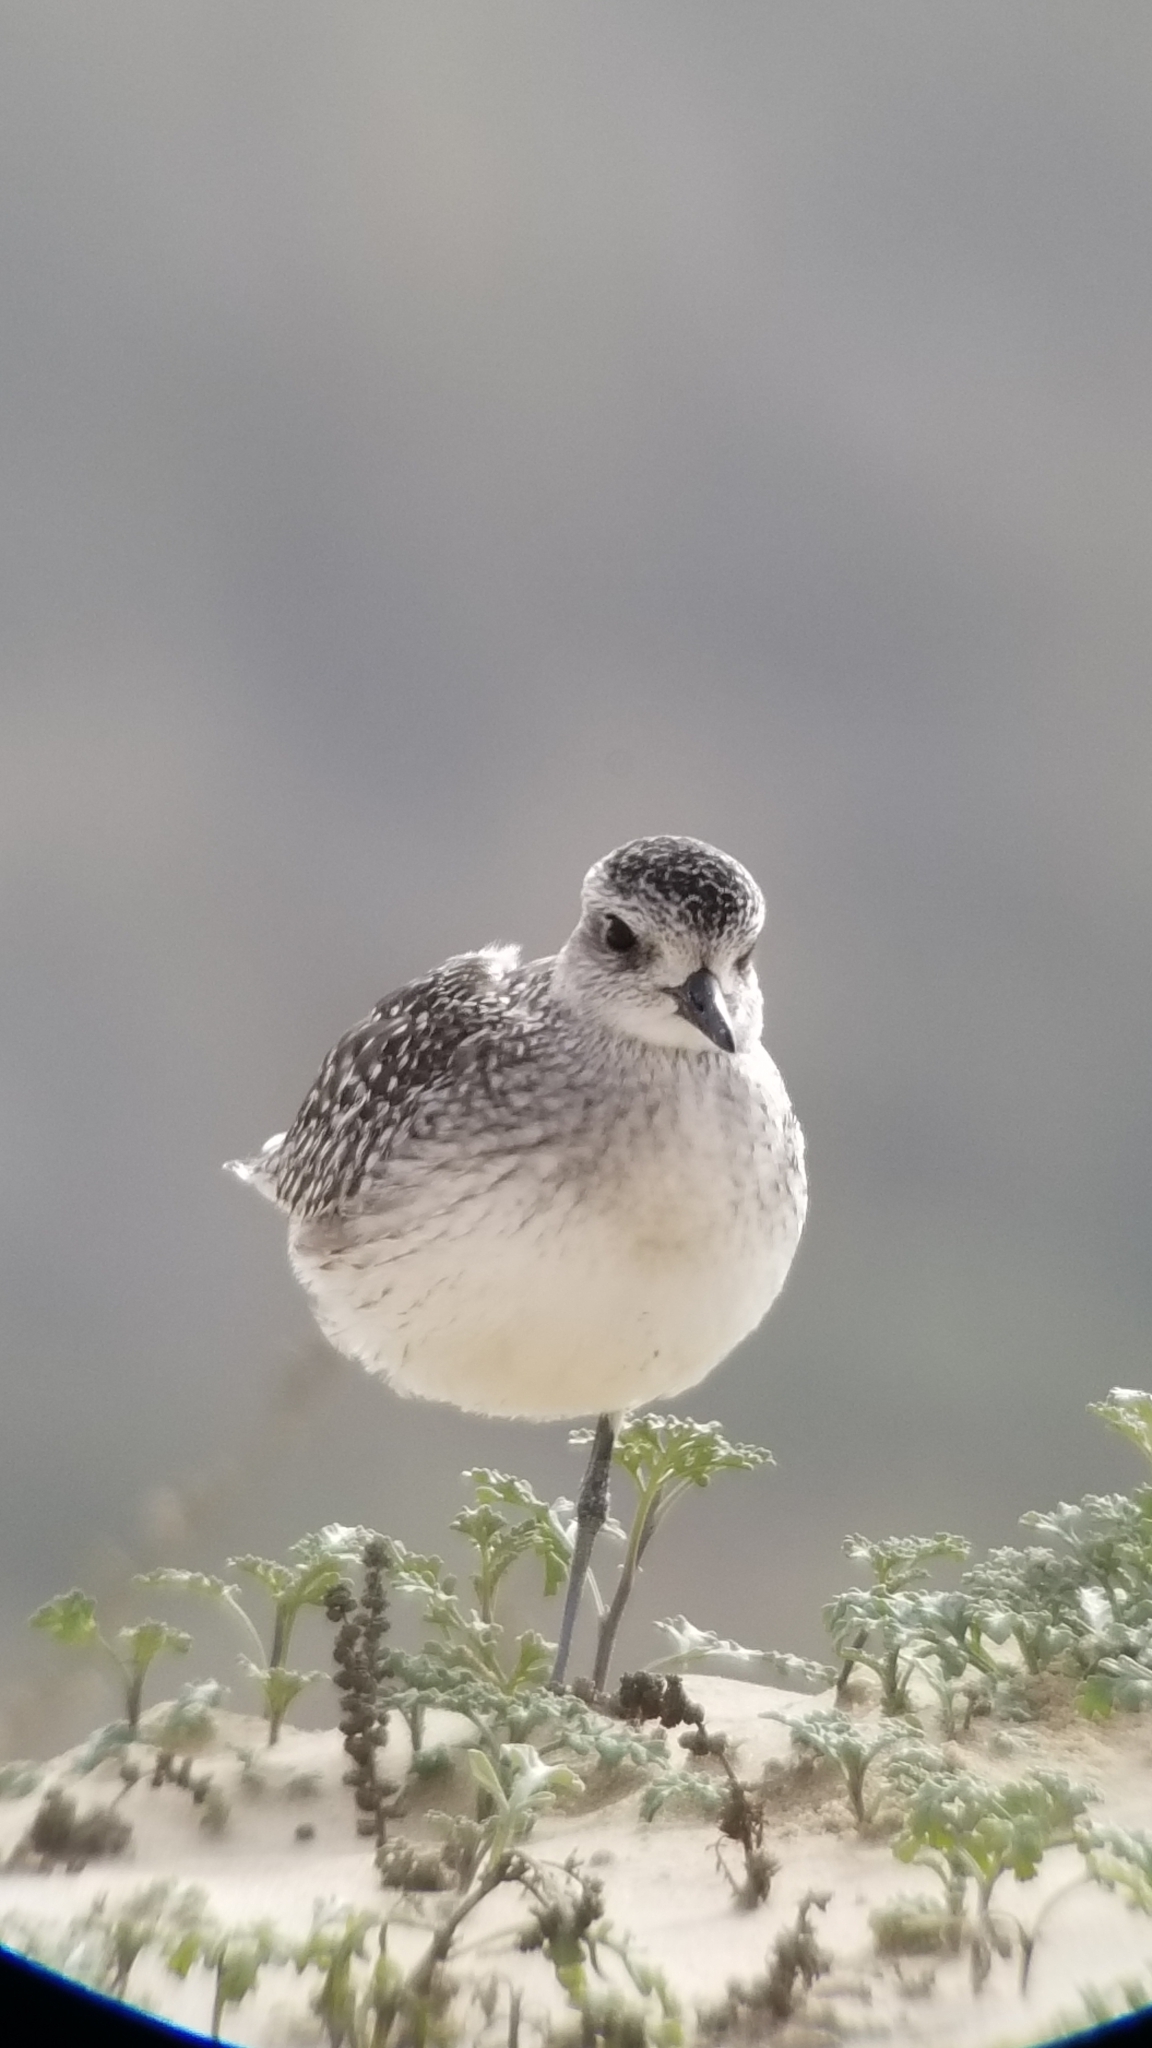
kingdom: Animalia
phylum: Chordata
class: Aves
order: Charadriiformes
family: Charadriidae
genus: Pluvialis
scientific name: Pluvialis squatarola
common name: Grey plover
